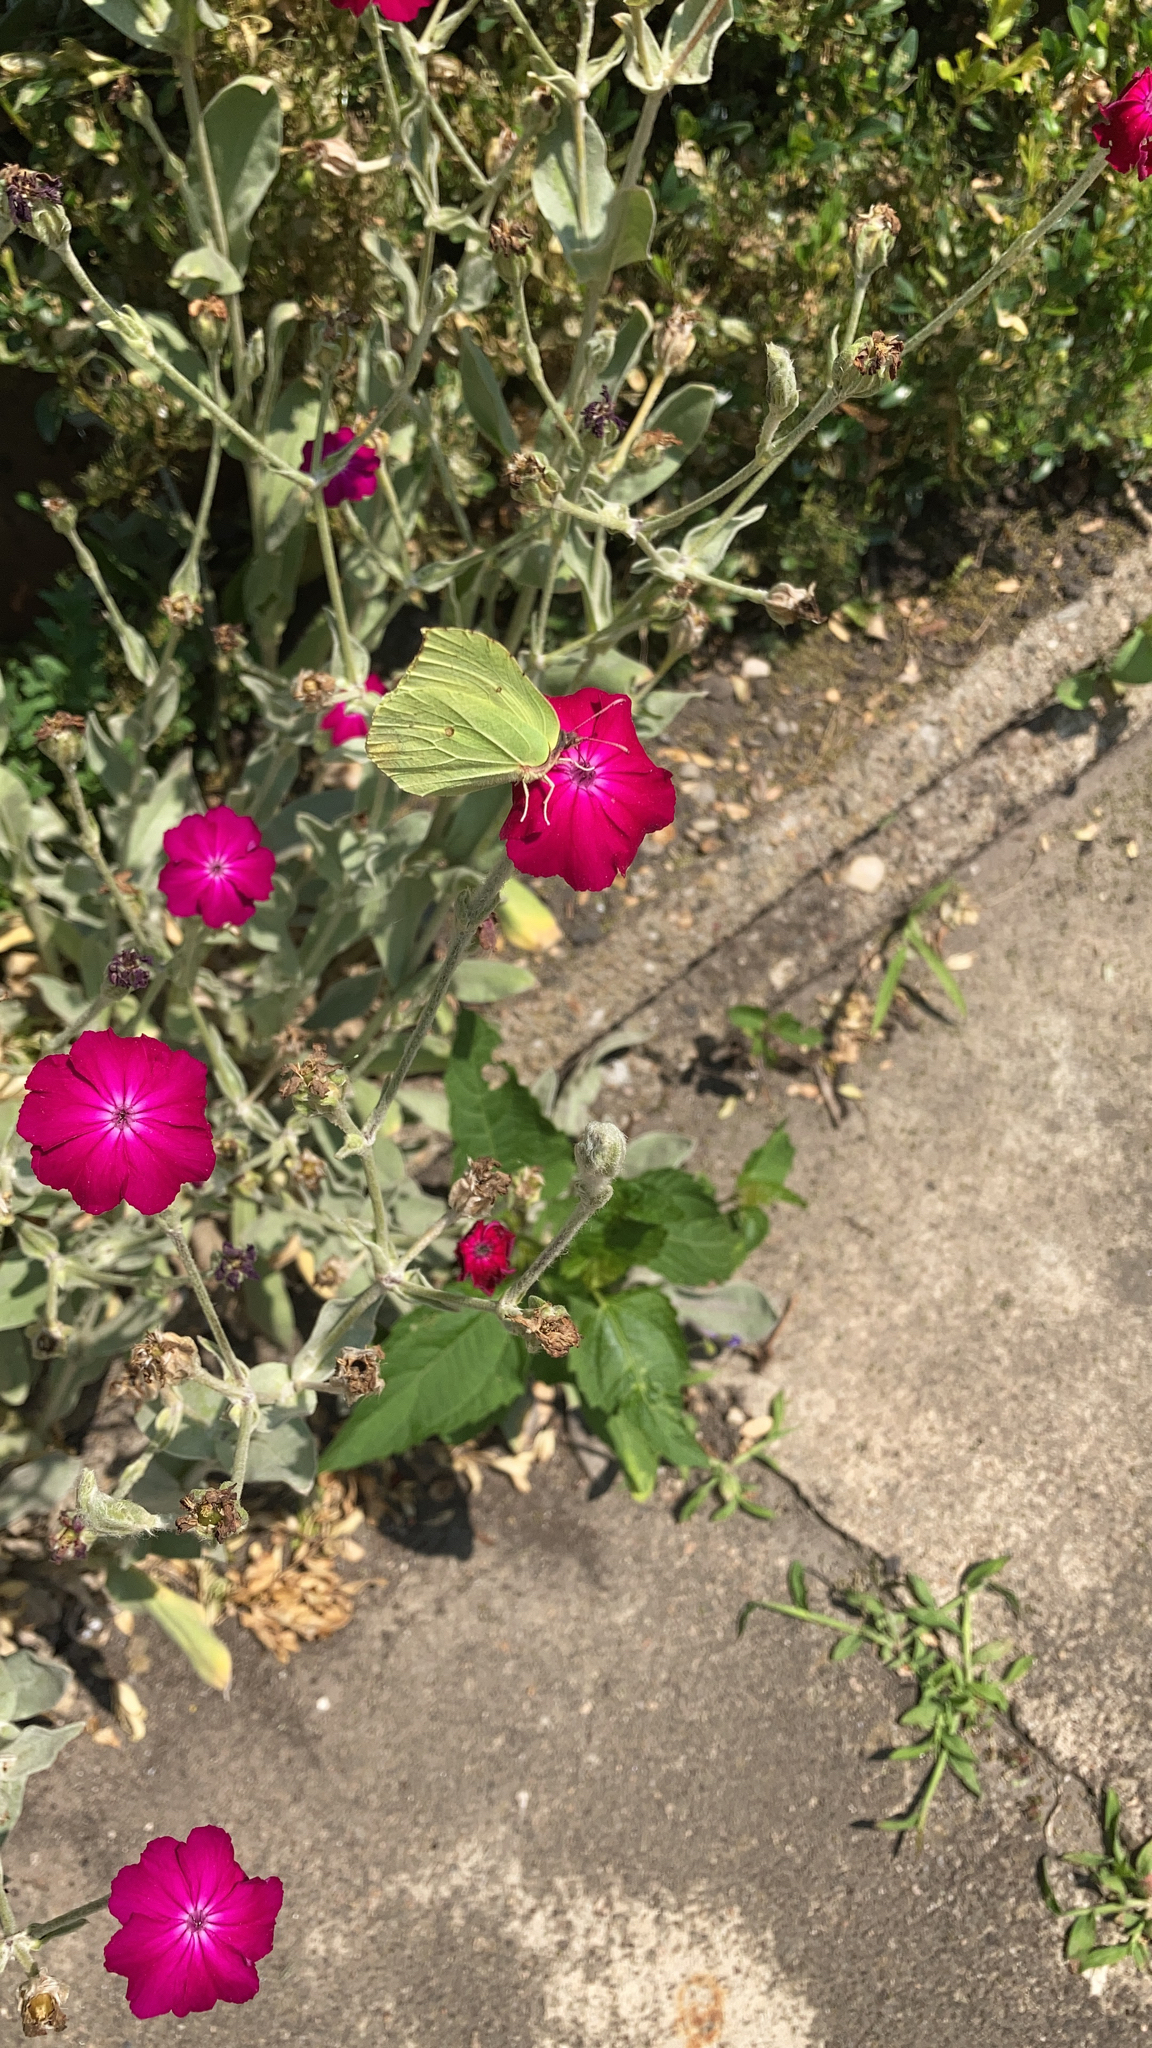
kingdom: Animalia
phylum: Arthropoda
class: Insecta
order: Lepidoptera
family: Pieridae
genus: Gonepteryx
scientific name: Gonepteryx rhamni
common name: Brimstone
